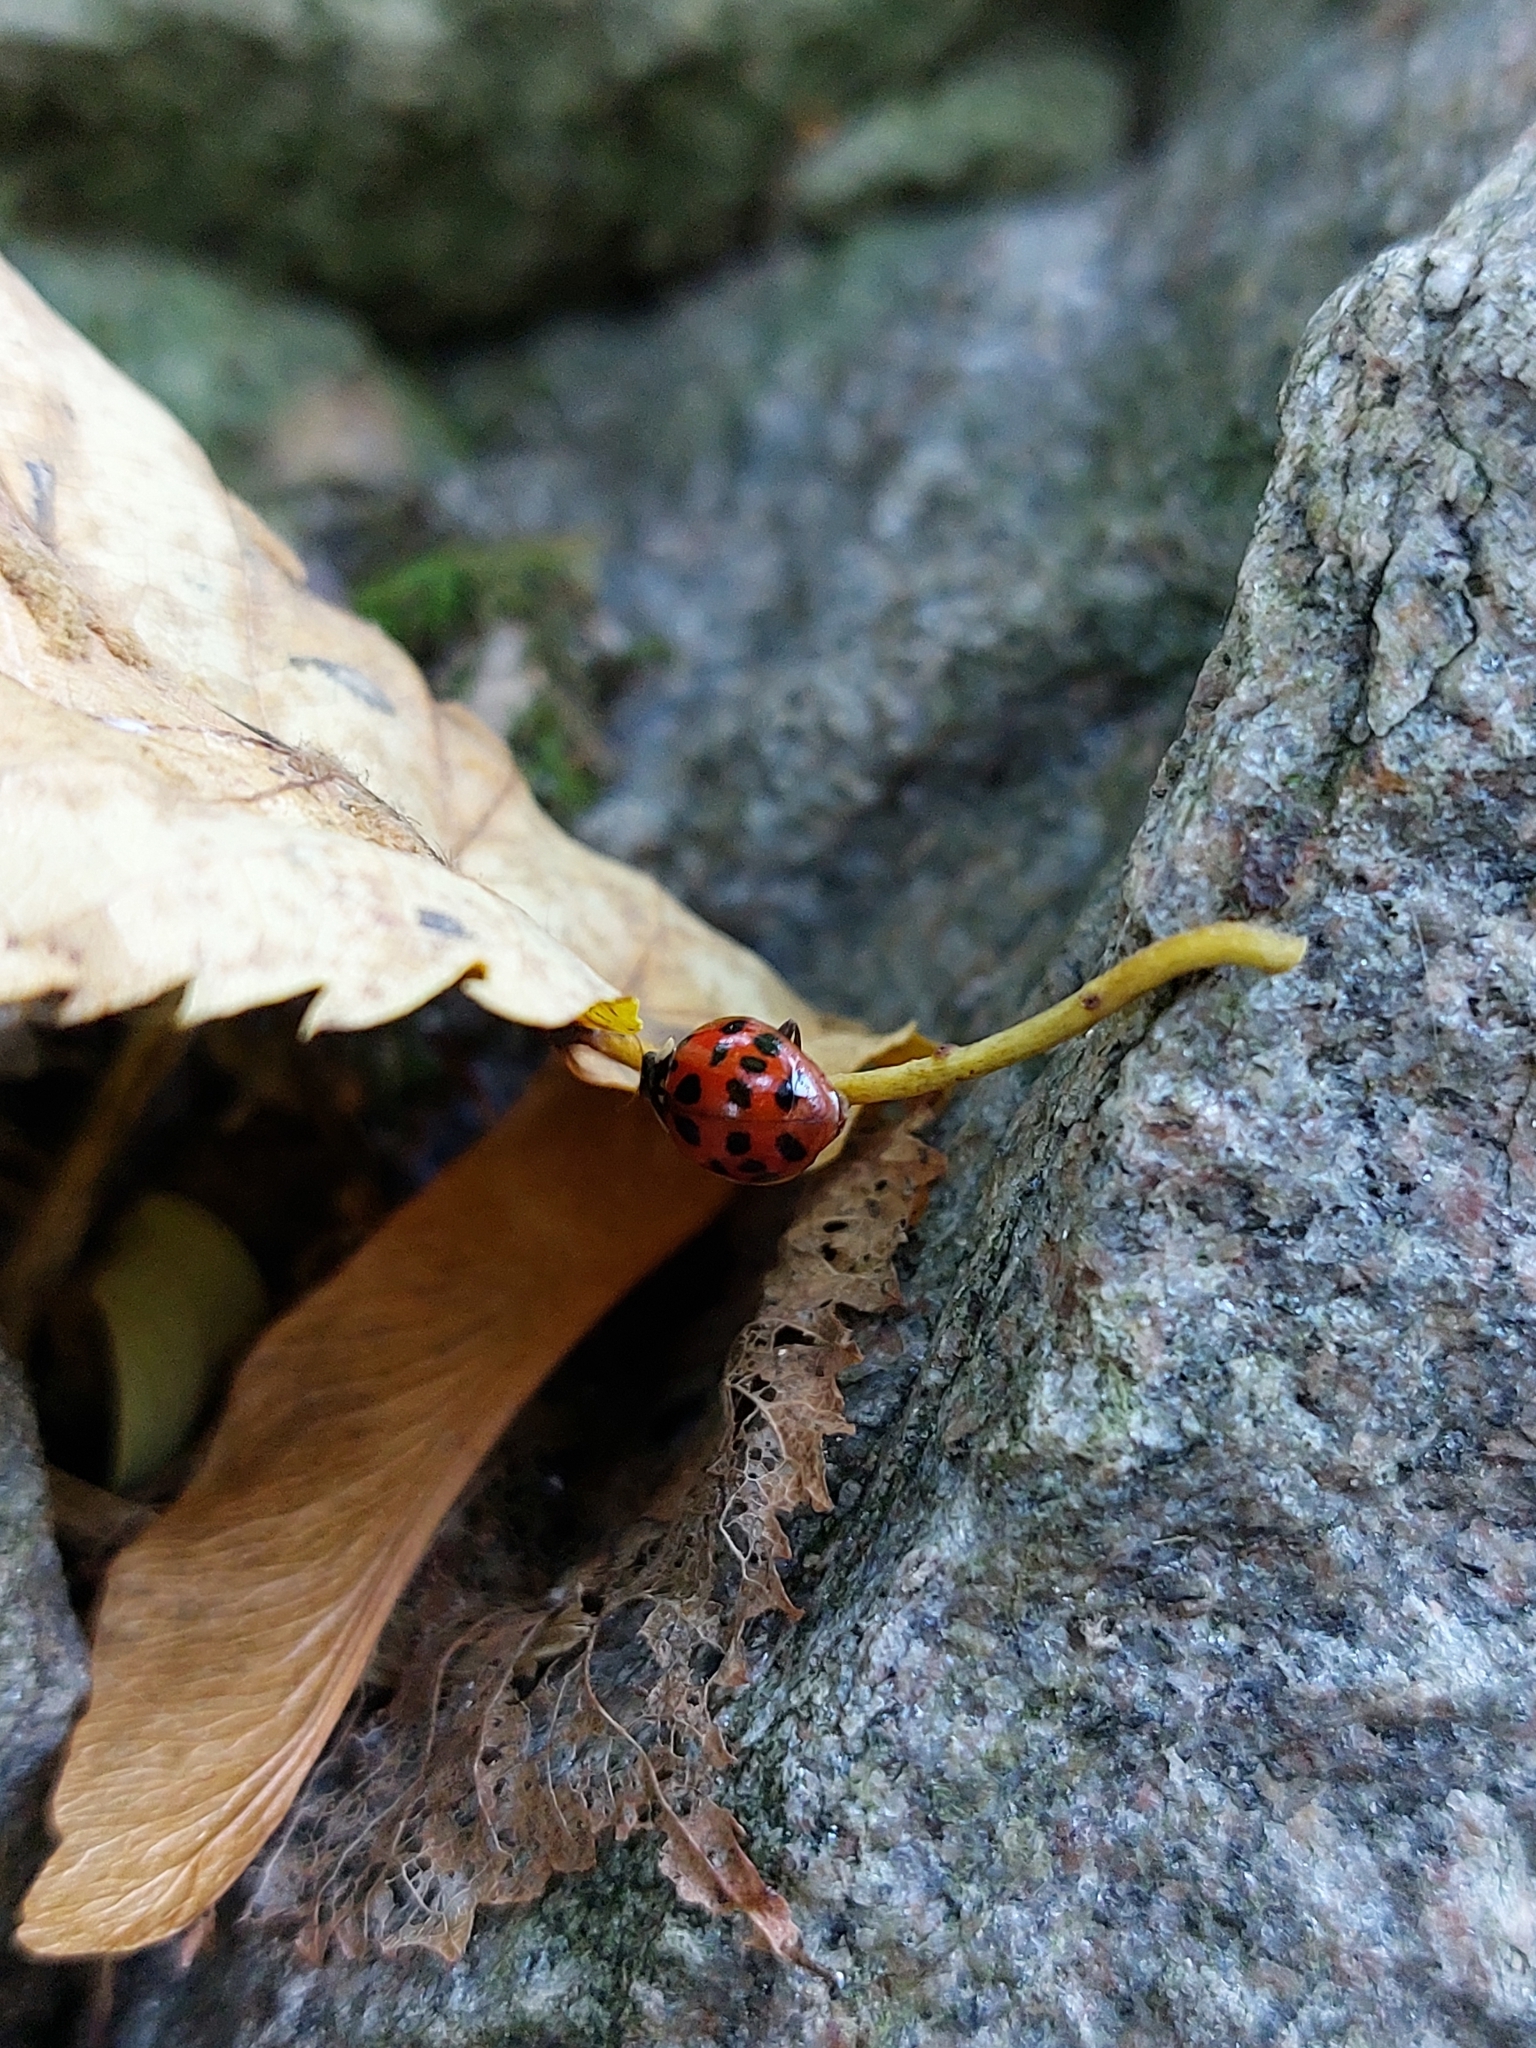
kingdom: Animalia
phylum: Arthropoda
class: Insecta
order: Coleoptera
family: Coccinellidae
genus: Harmonia
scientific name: Harmonia axyridis
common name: Harlequin ladybird
